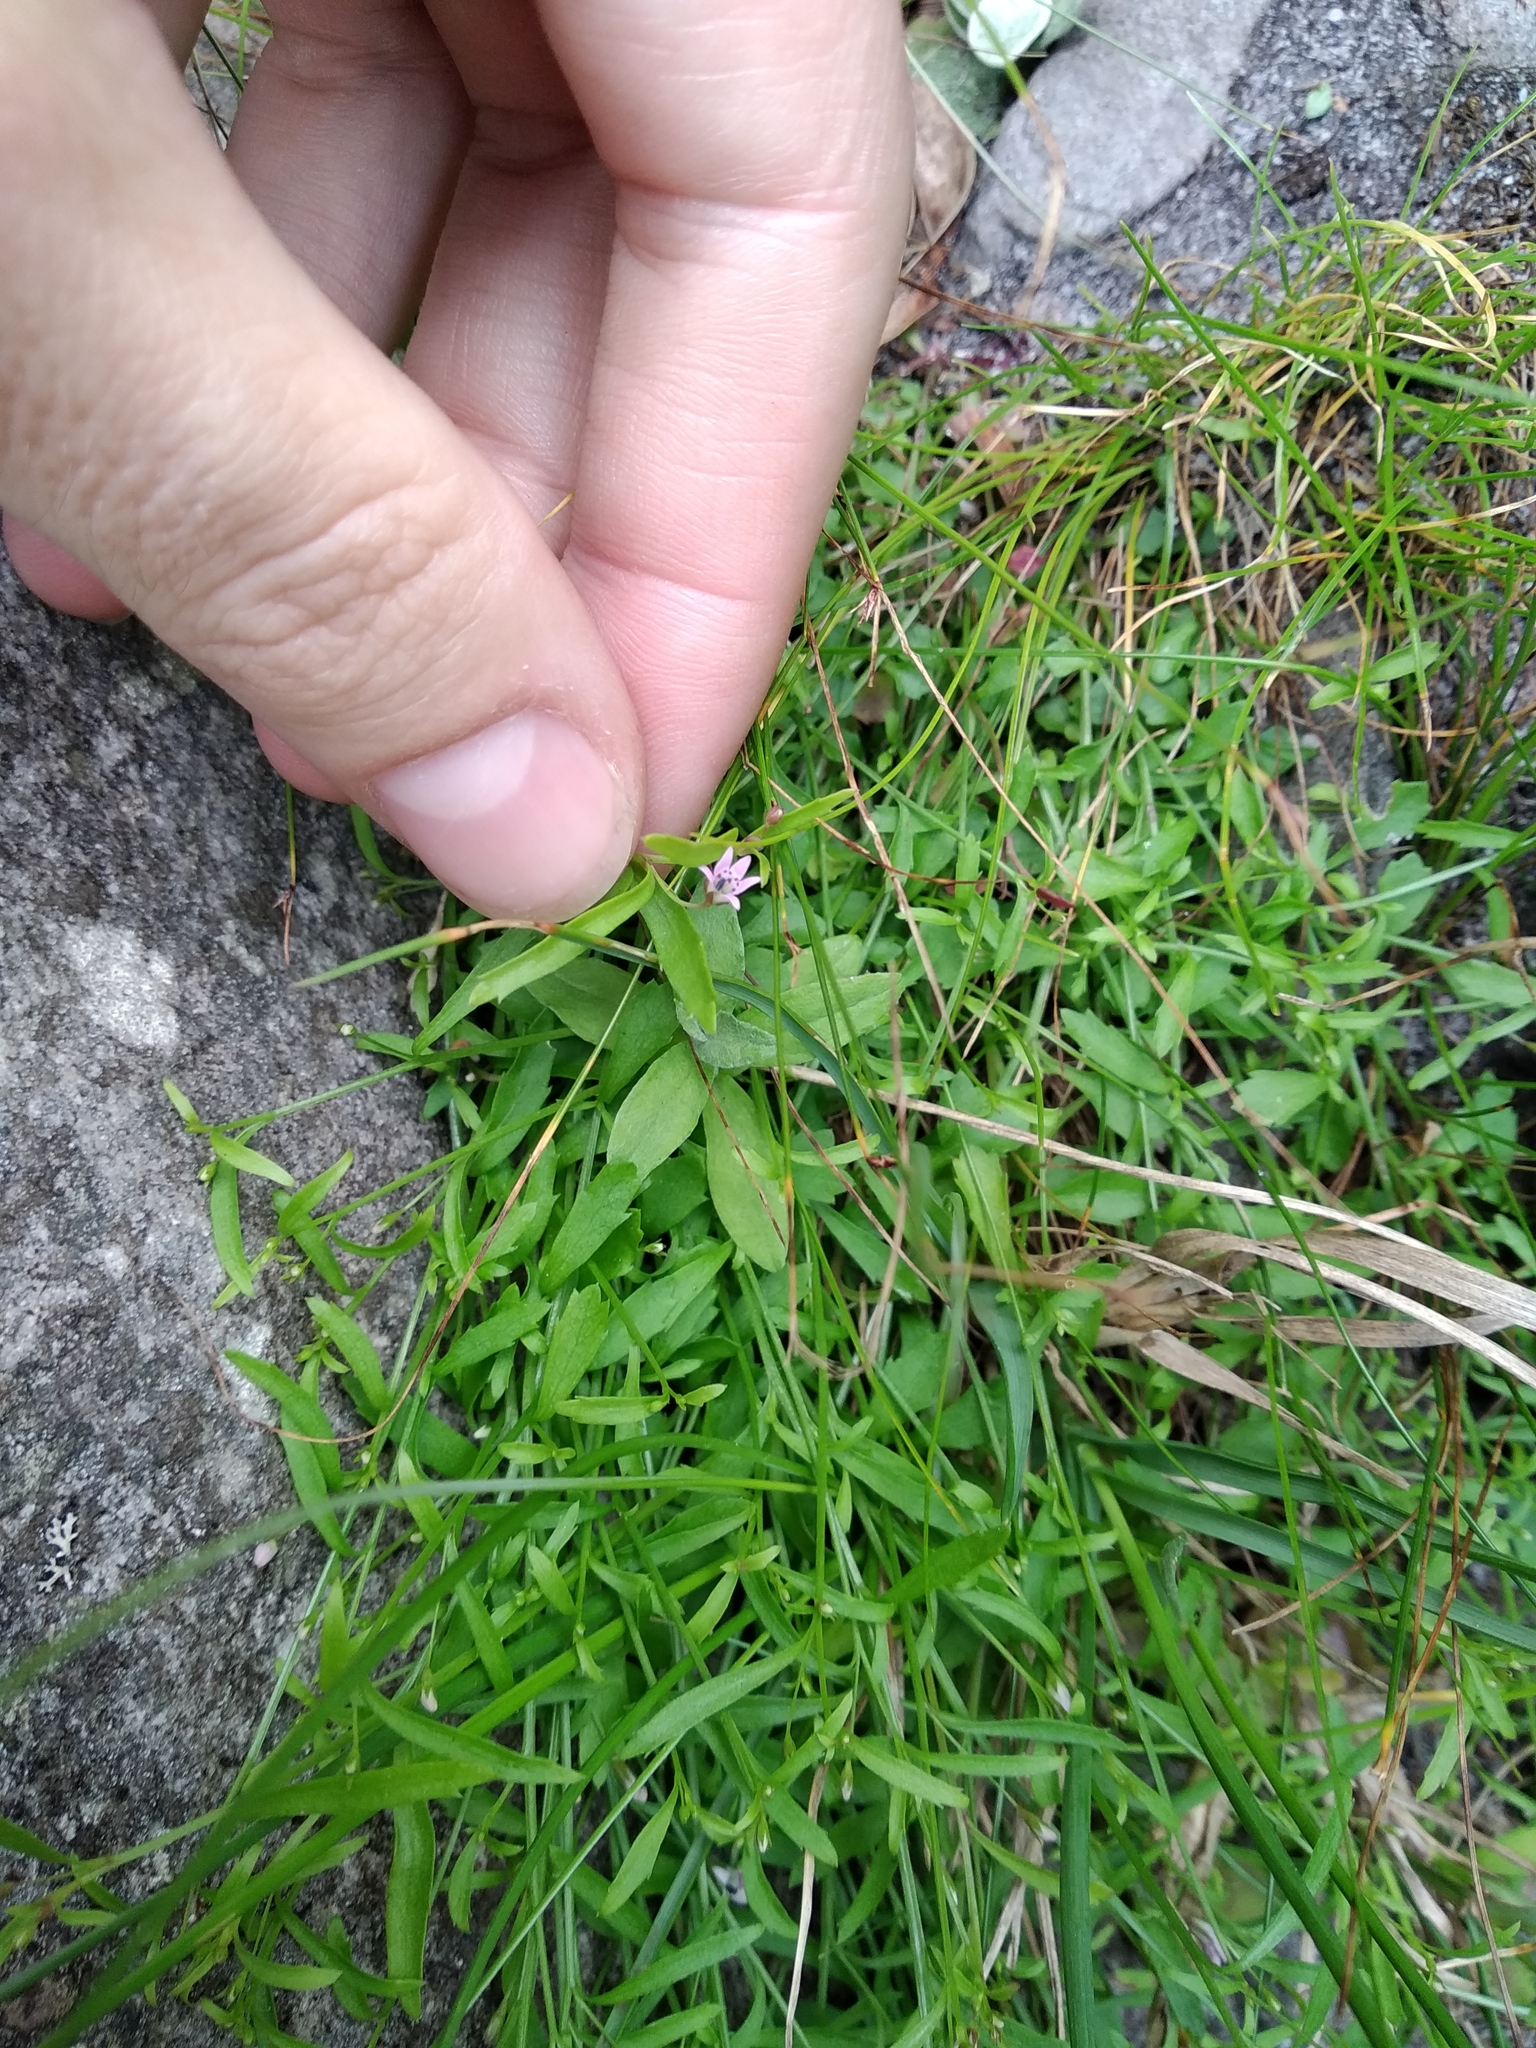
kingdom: Plantae
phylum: Tracheophyta
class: Magnoliopsida
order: Asterales
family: Campanulaceae
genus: Lobelia
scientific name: Lobelia eckloniana
